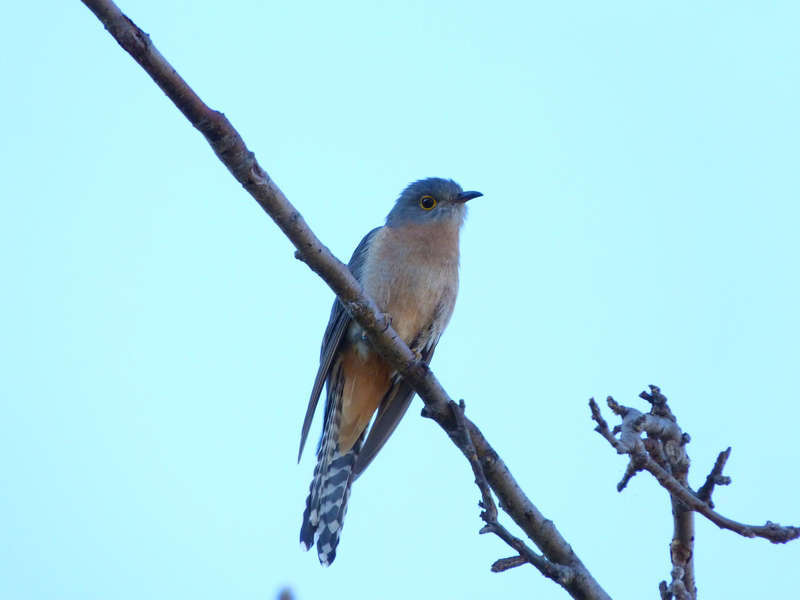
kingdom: Animalia
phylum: Chordata
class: Aves
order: Cuculiformes
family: Cuculidae
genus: Cacomantis
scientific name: Cacomantis flabelliformis
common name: Fan-tailed cuckoo
